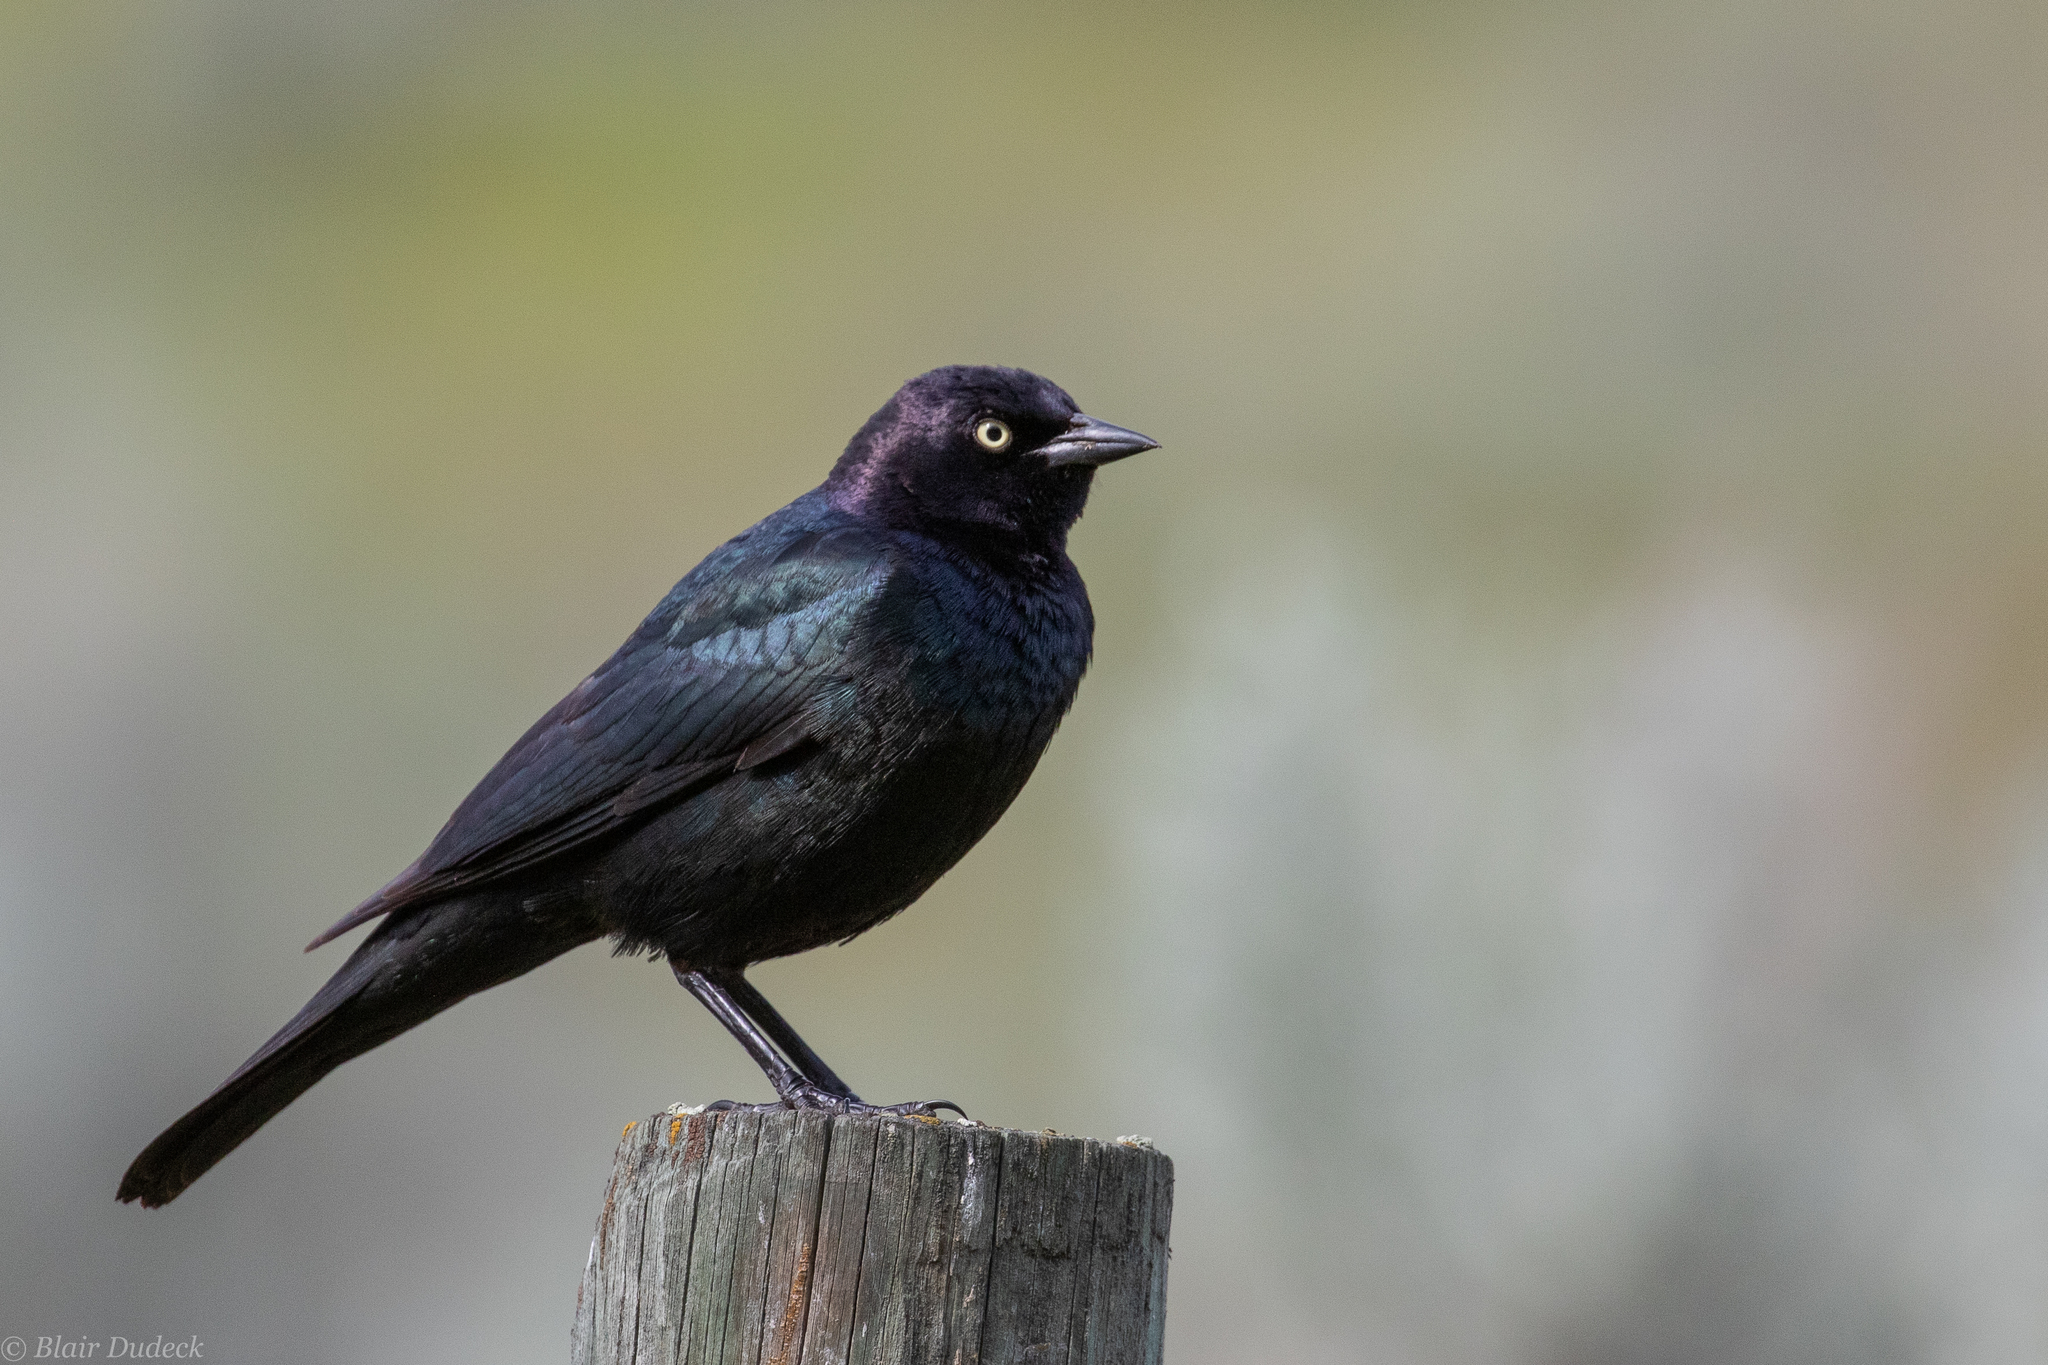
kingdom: Animalia
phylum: Chordata
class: Aves
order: Passeriformes
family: Icteridae
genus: Euphagus
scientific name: Euphagus cyanocephalus
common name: Brewer's blackbird
